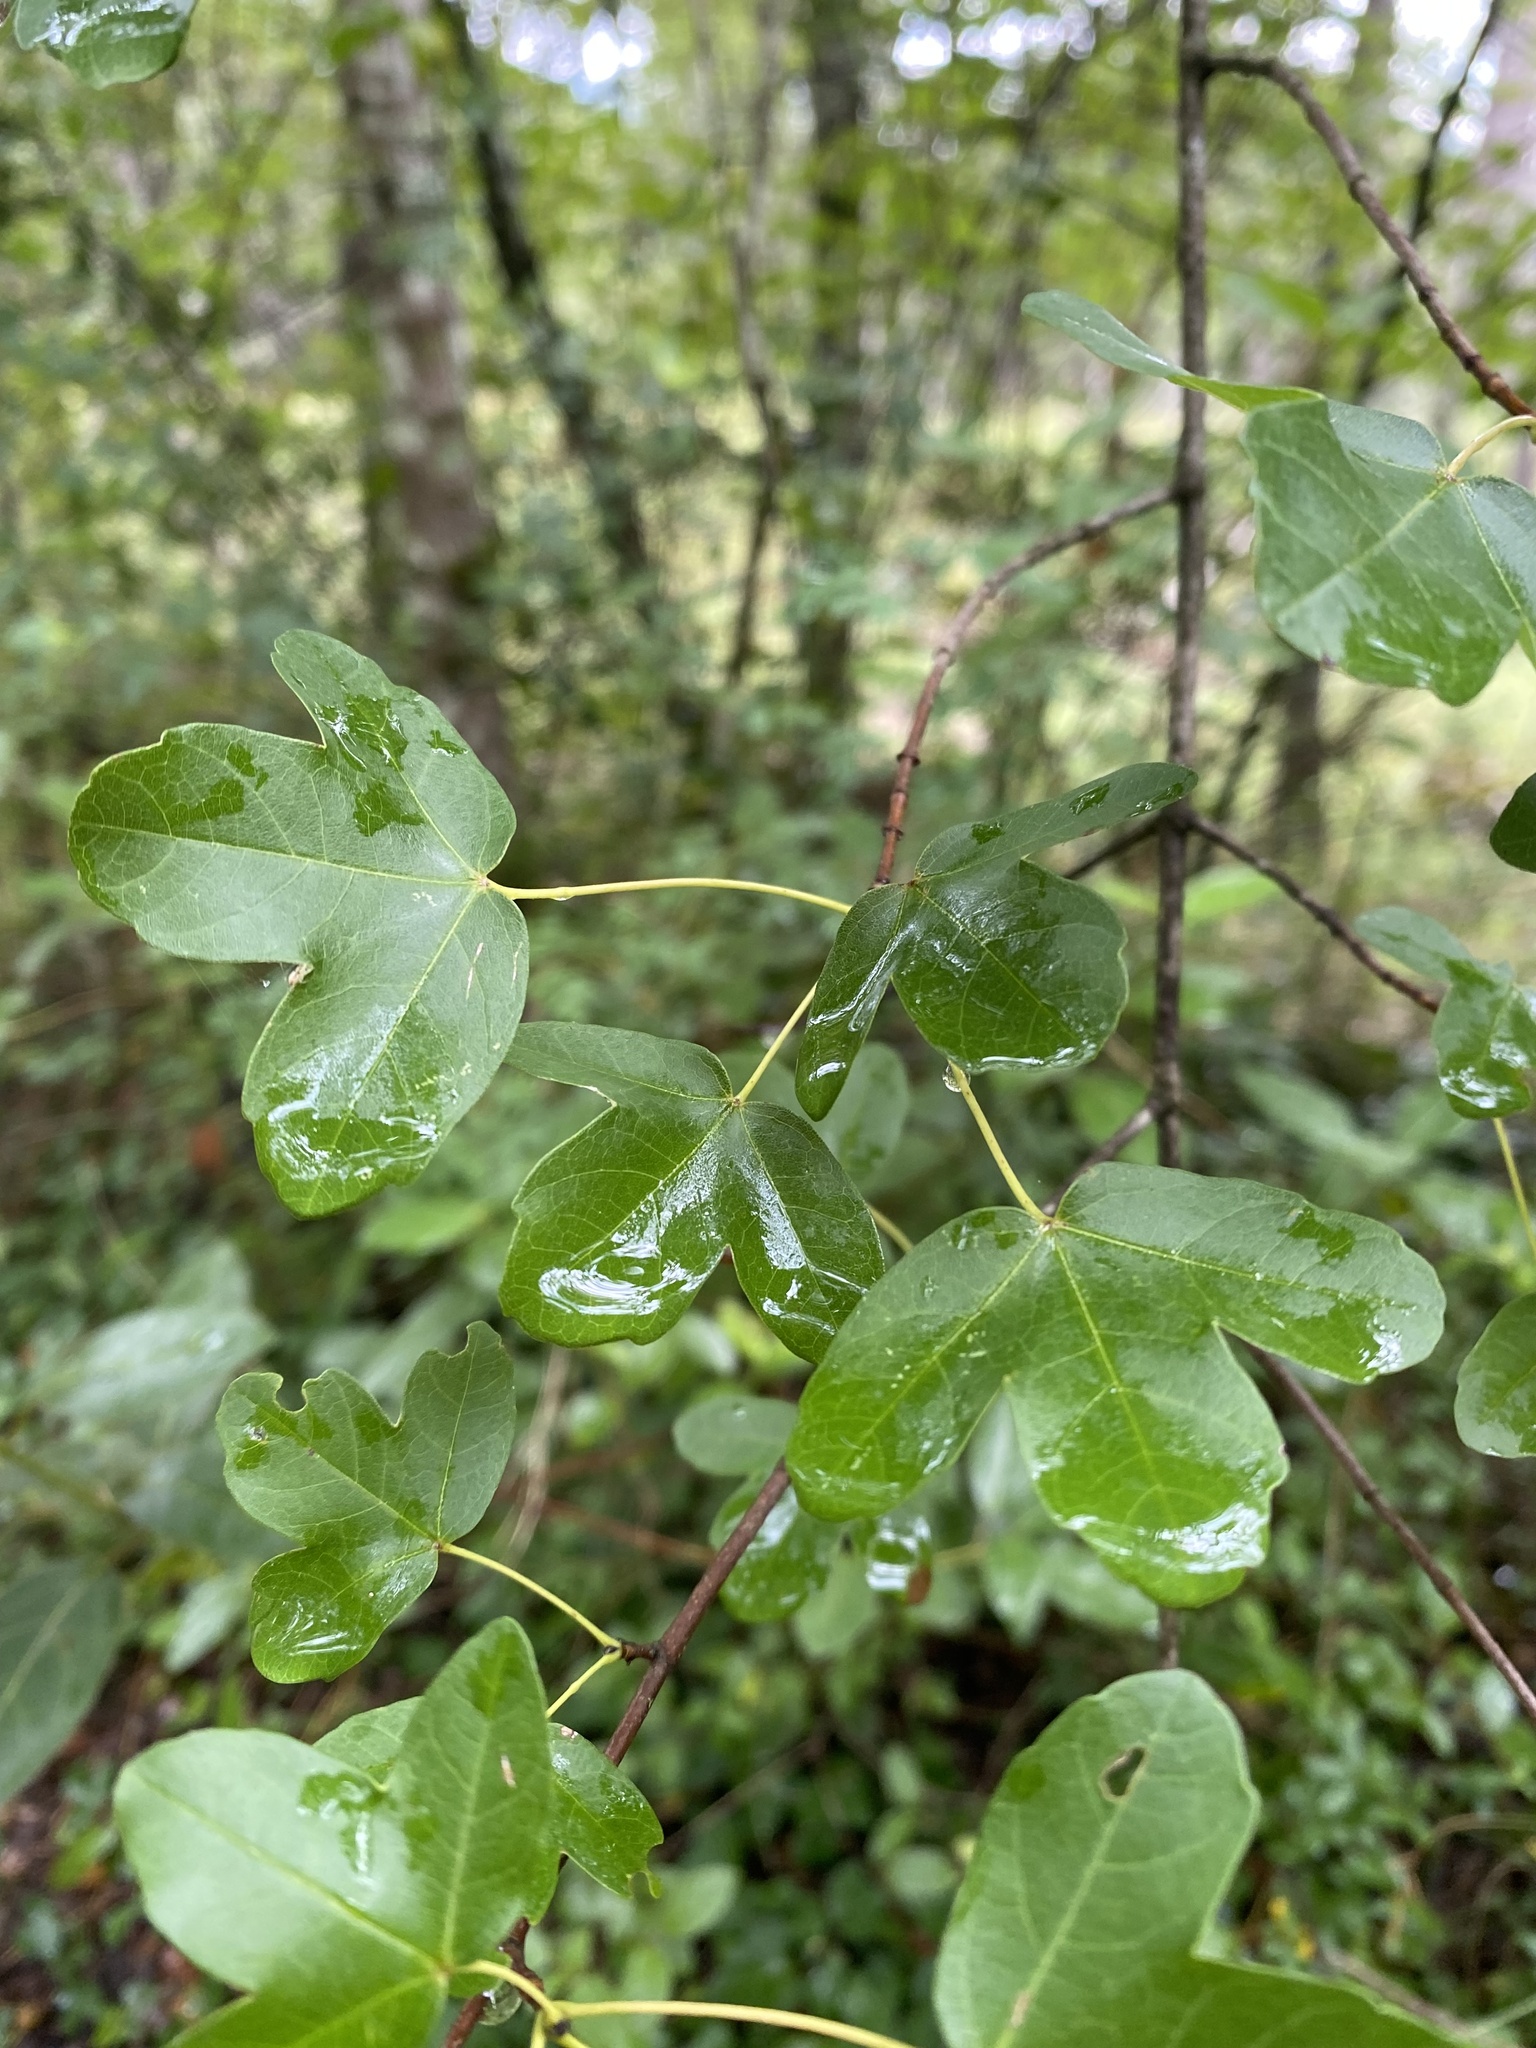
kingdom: Plantae
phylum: Tracheophyta
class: Magnoliopsida
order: Sapindales
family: Sapindaceae
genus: Acer
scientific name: Acer monspessulanum
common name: Montpellier maple
